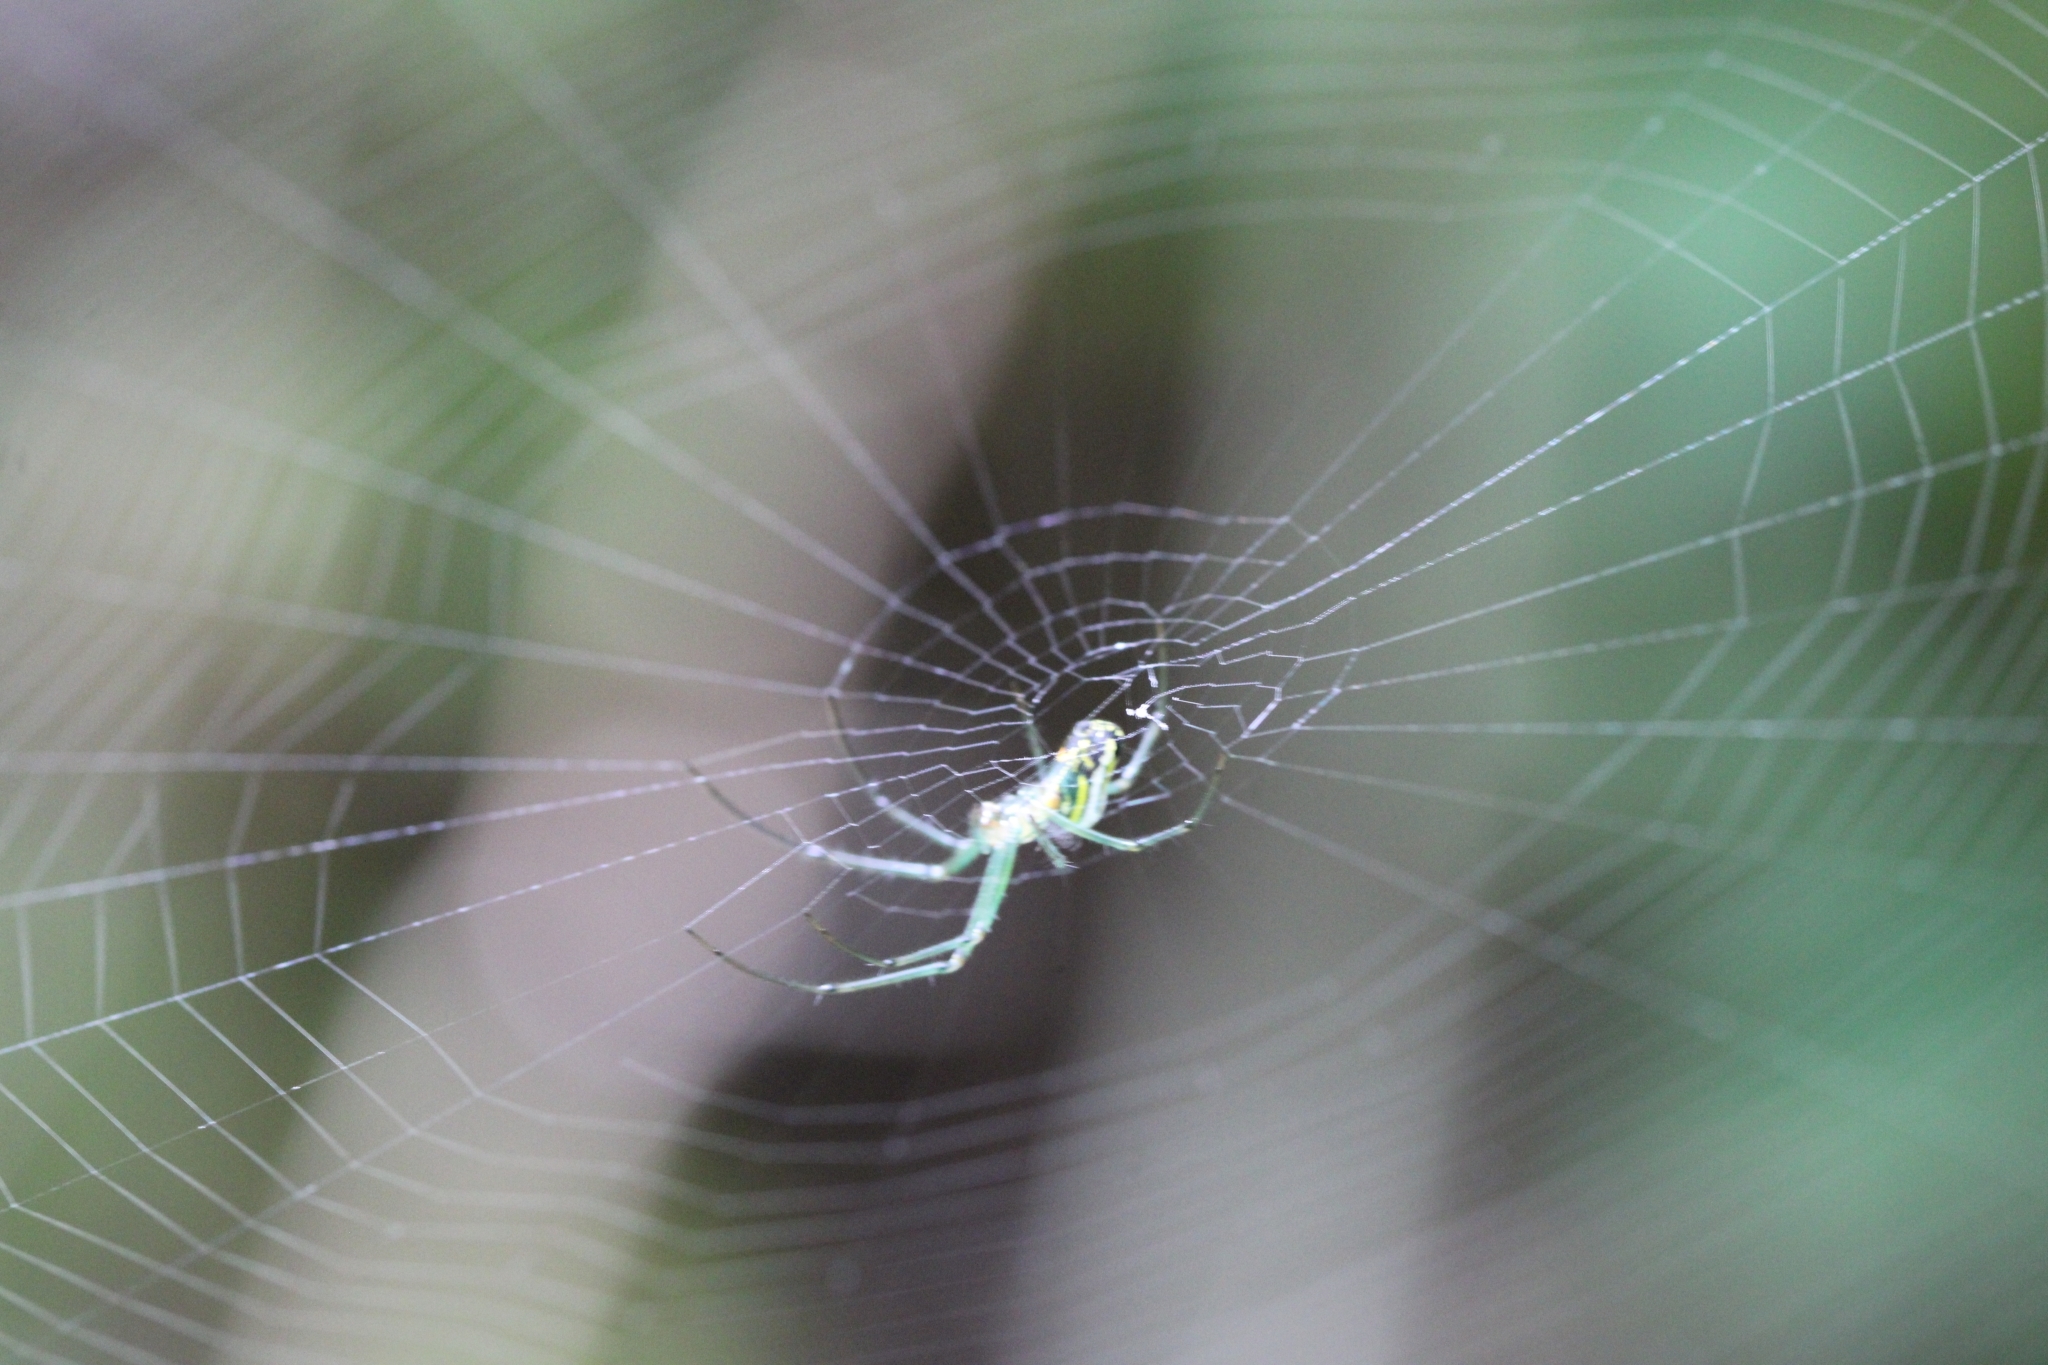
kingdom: Animalia
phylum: Arthropoda
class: Arachnida
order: Araneae
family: Tetragnathidae
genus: Leucauge
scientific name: Leucauge venusta
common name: Longjawed orb weavers
